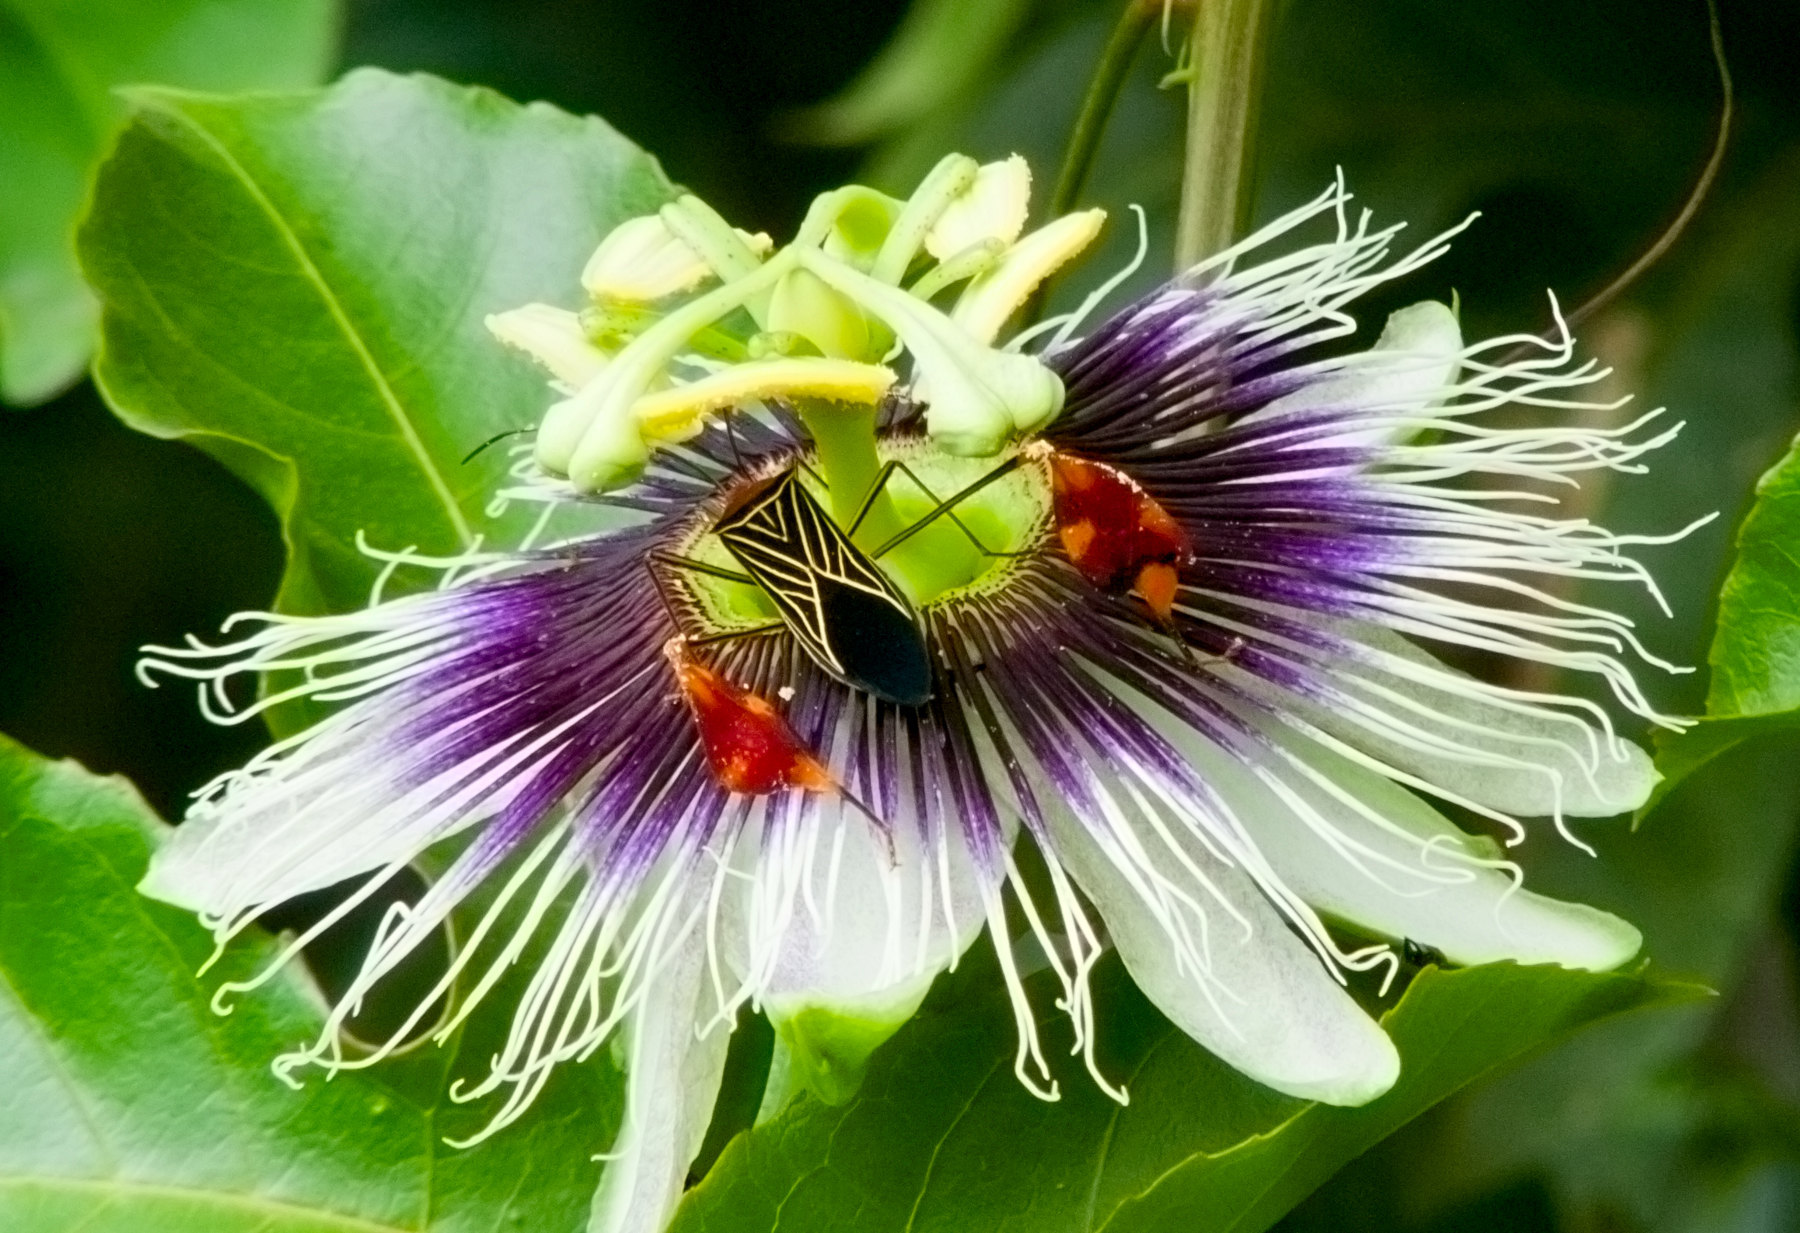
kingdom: Animalia
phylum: Arthropoda
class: Insecta
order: Hemiptera
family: Coreidae
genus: Bitta
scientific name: Bitta
